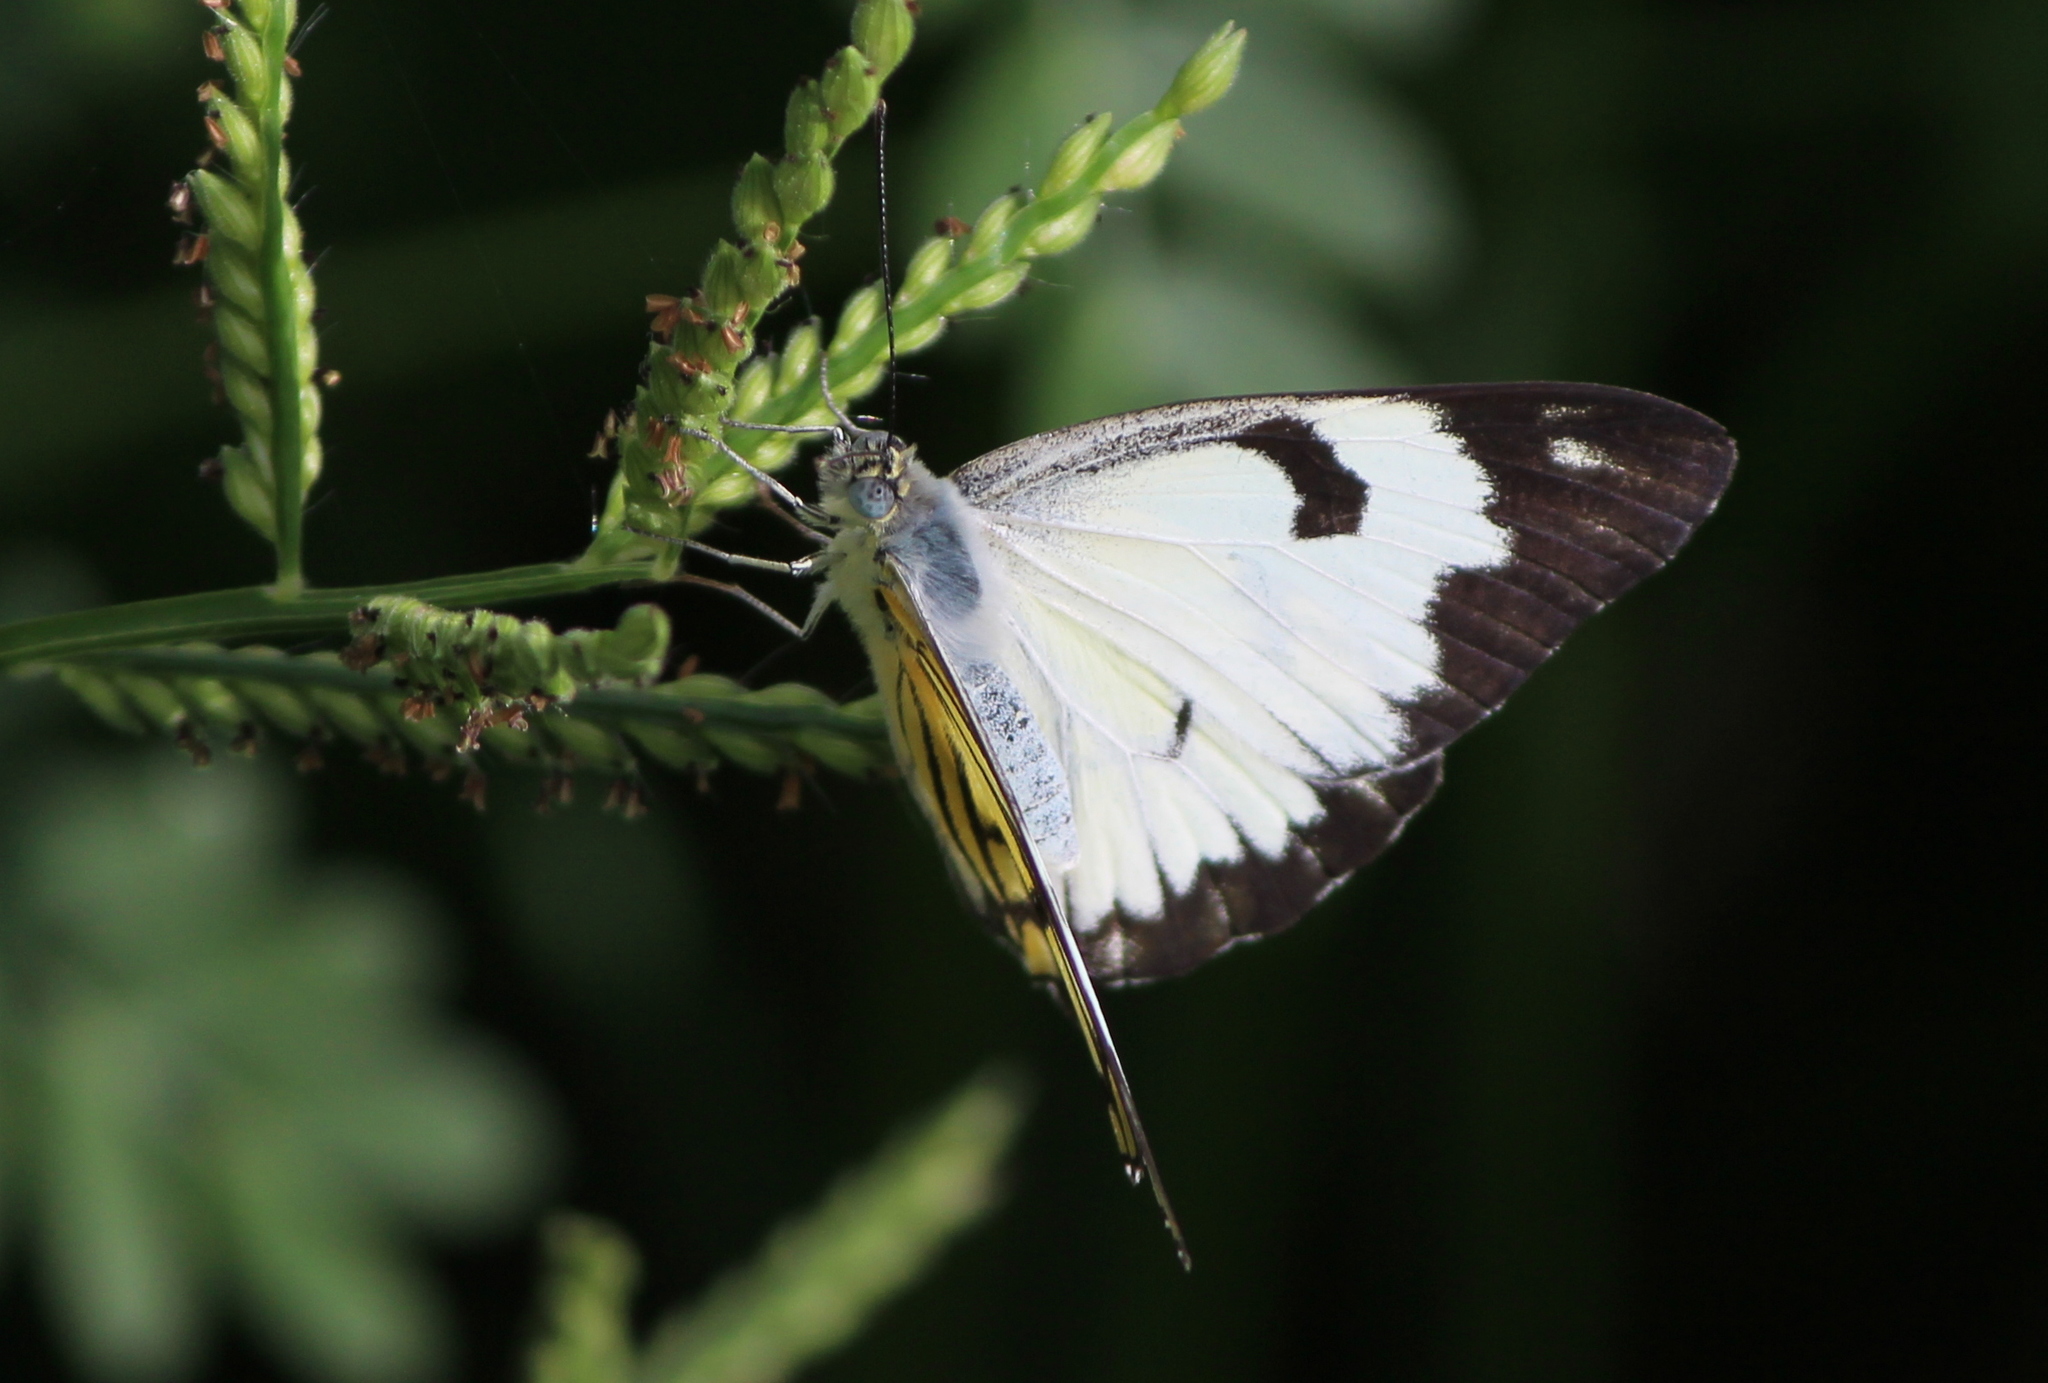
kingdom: Animalia
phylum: Arthropoda
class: Insecta
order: Lepidoptera
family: Pieridae
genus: Belenois
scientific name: Belenois aurota
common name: Brown-veined white
